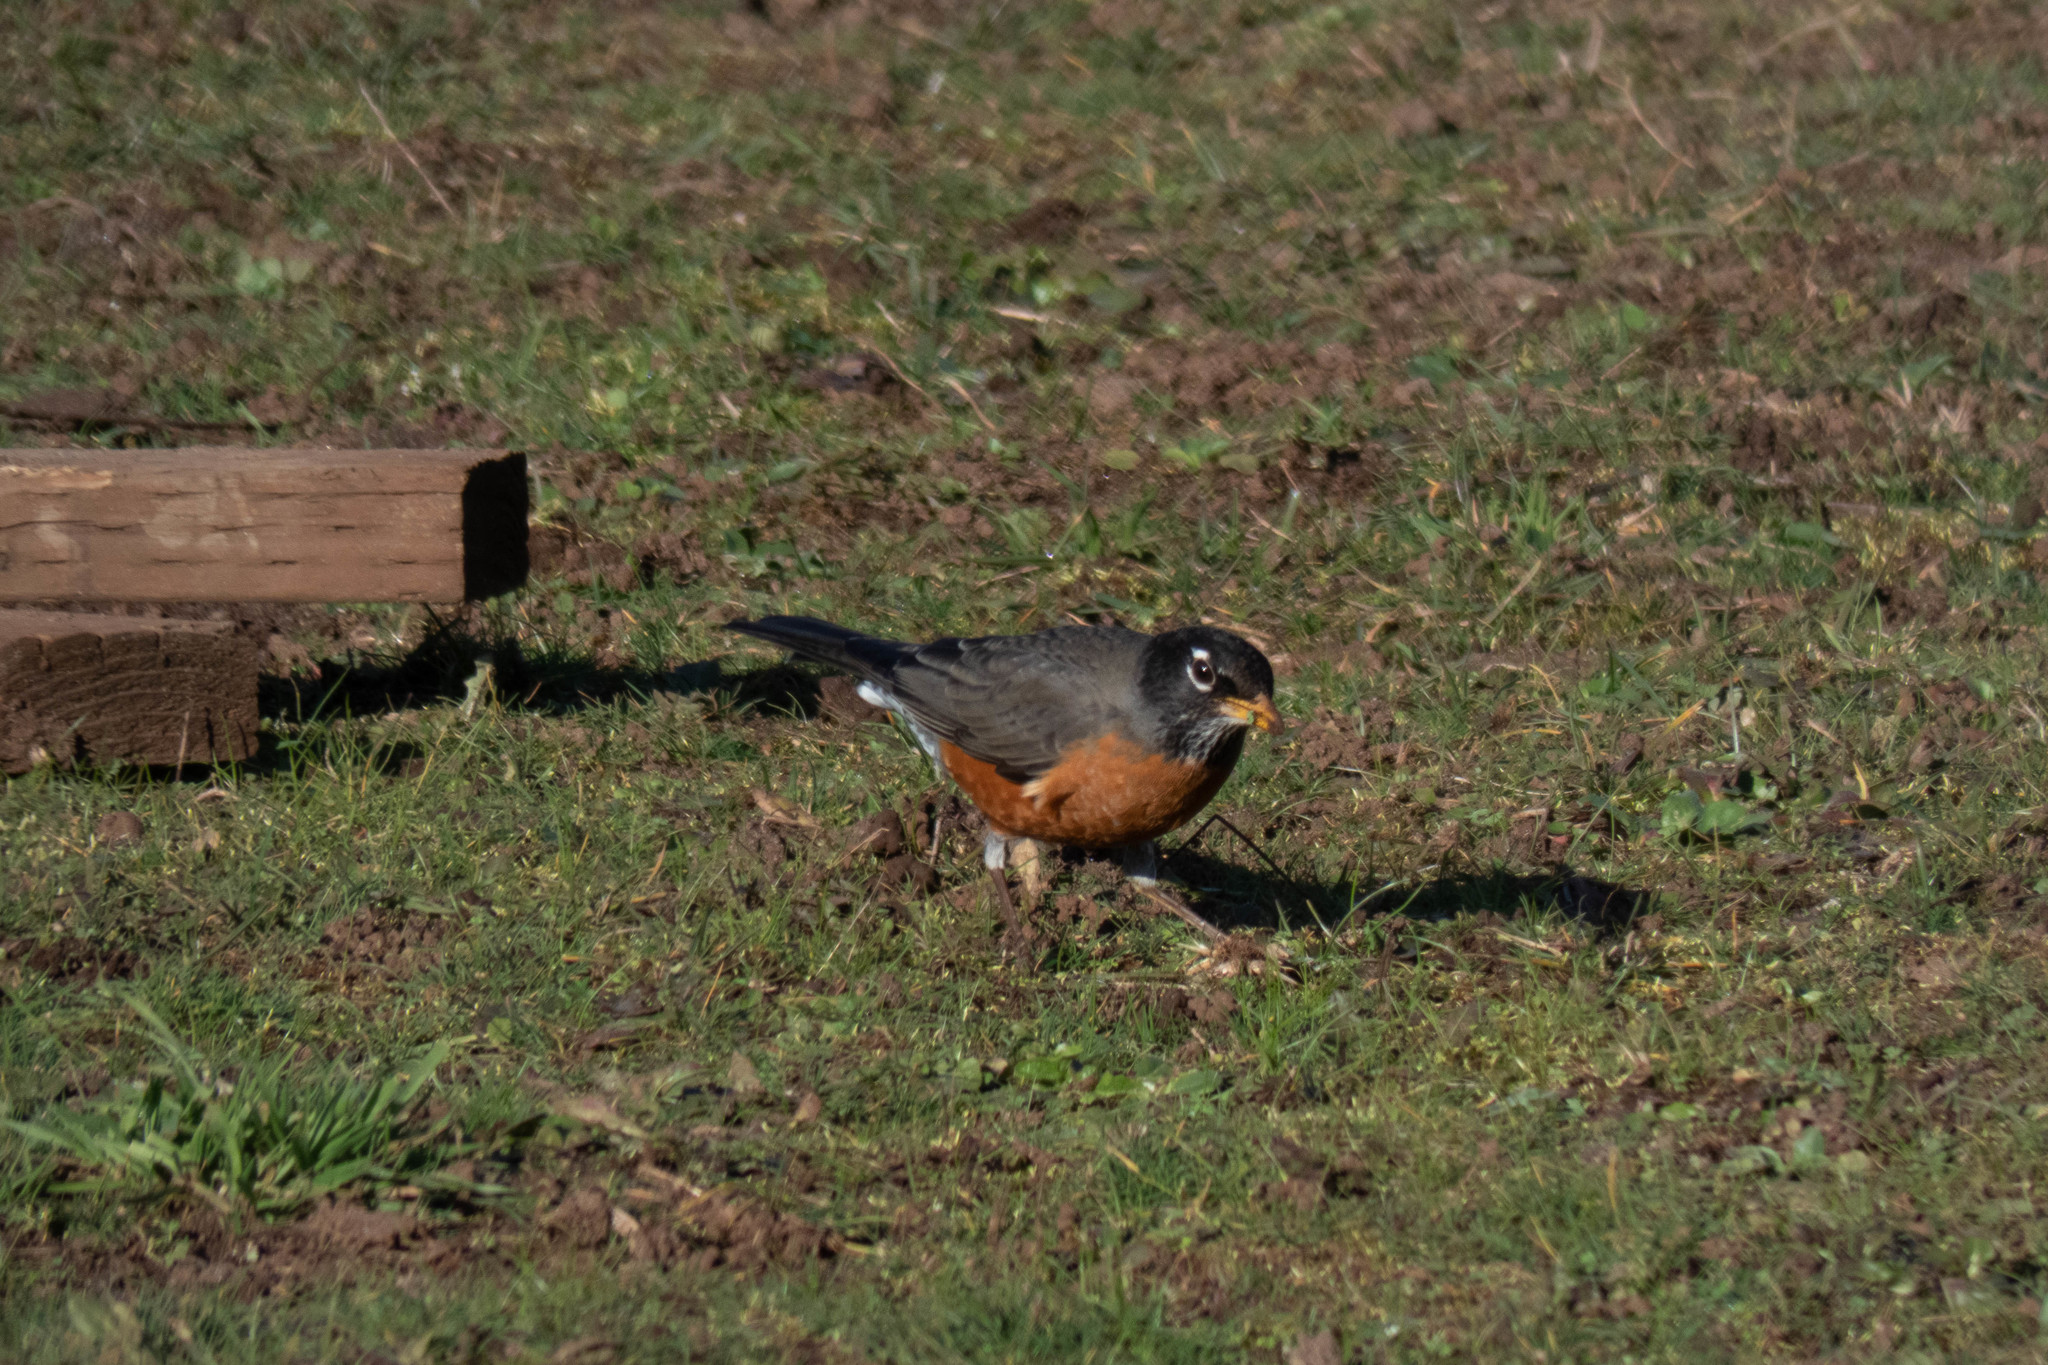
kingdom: Animalia
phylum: Chordata
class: Aves
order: Passeriformes
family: Turdidae
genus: Turdus
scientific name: Turdus migratorius
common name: American robin
